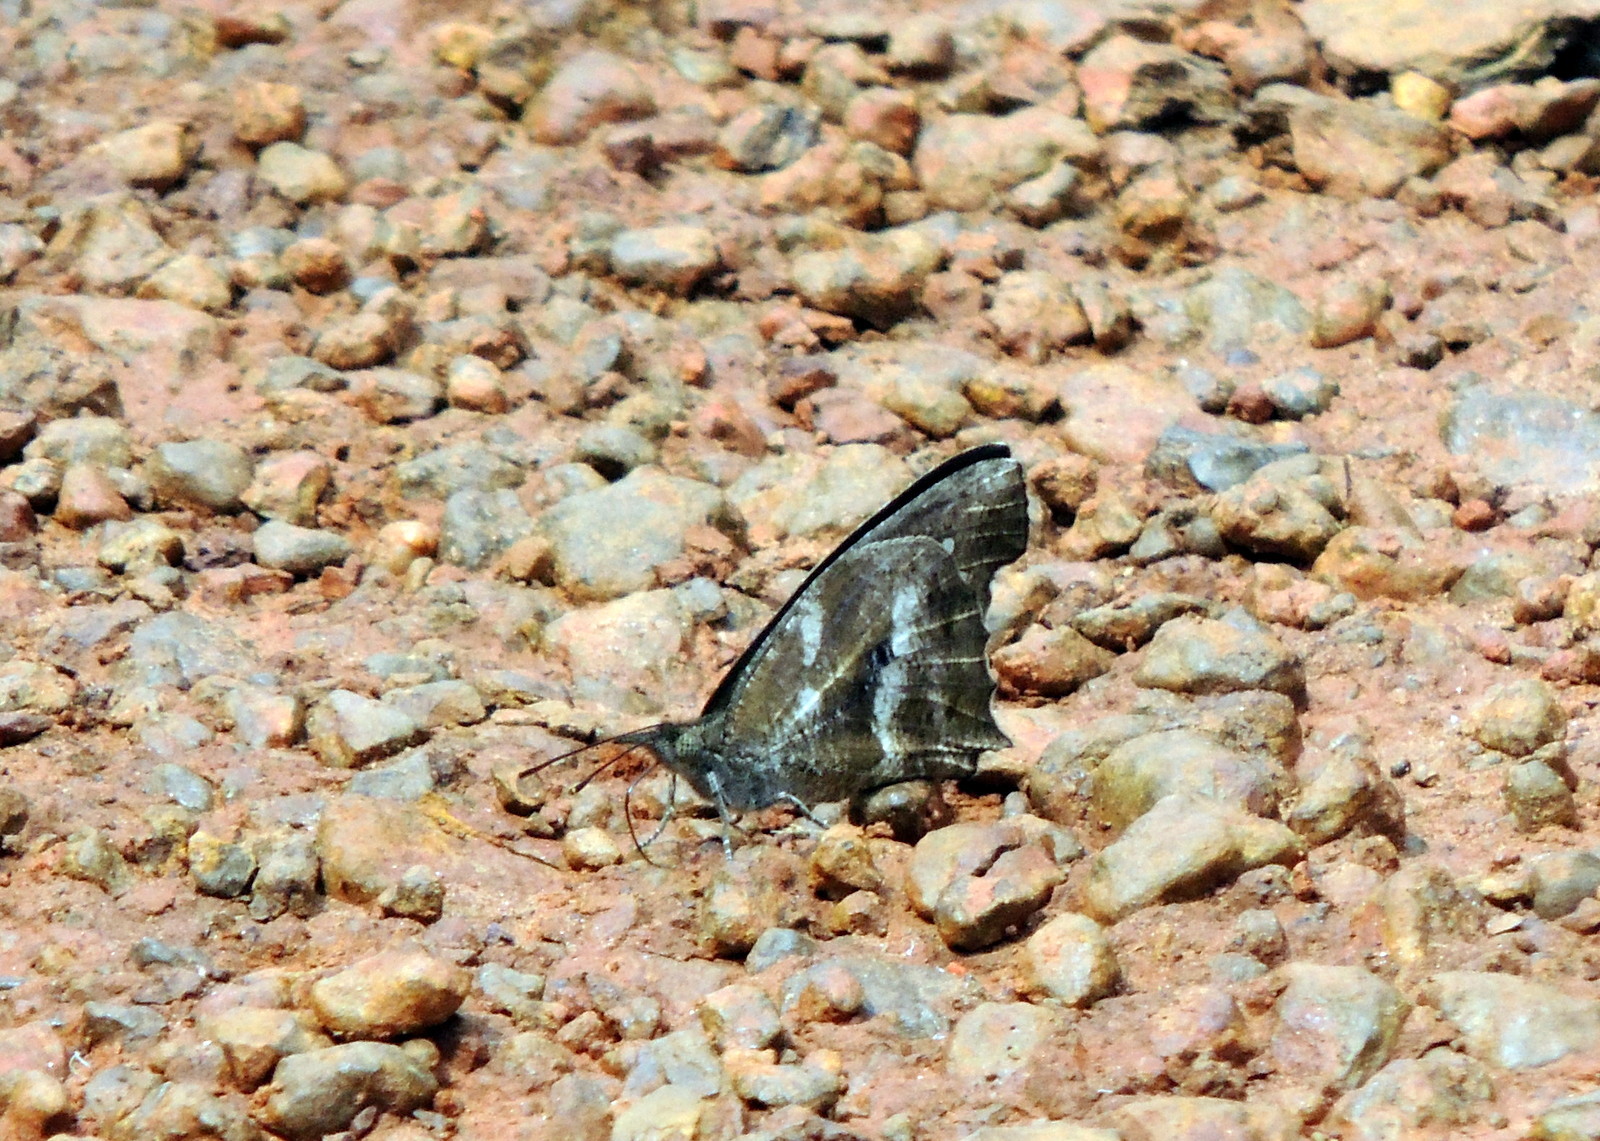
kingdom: Animalia
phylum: Arthropoda
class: Insecta
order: Lepidoptera
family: Nymphalidae
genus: Libythea
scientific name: Libythea labdaca
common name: Northern african snout
